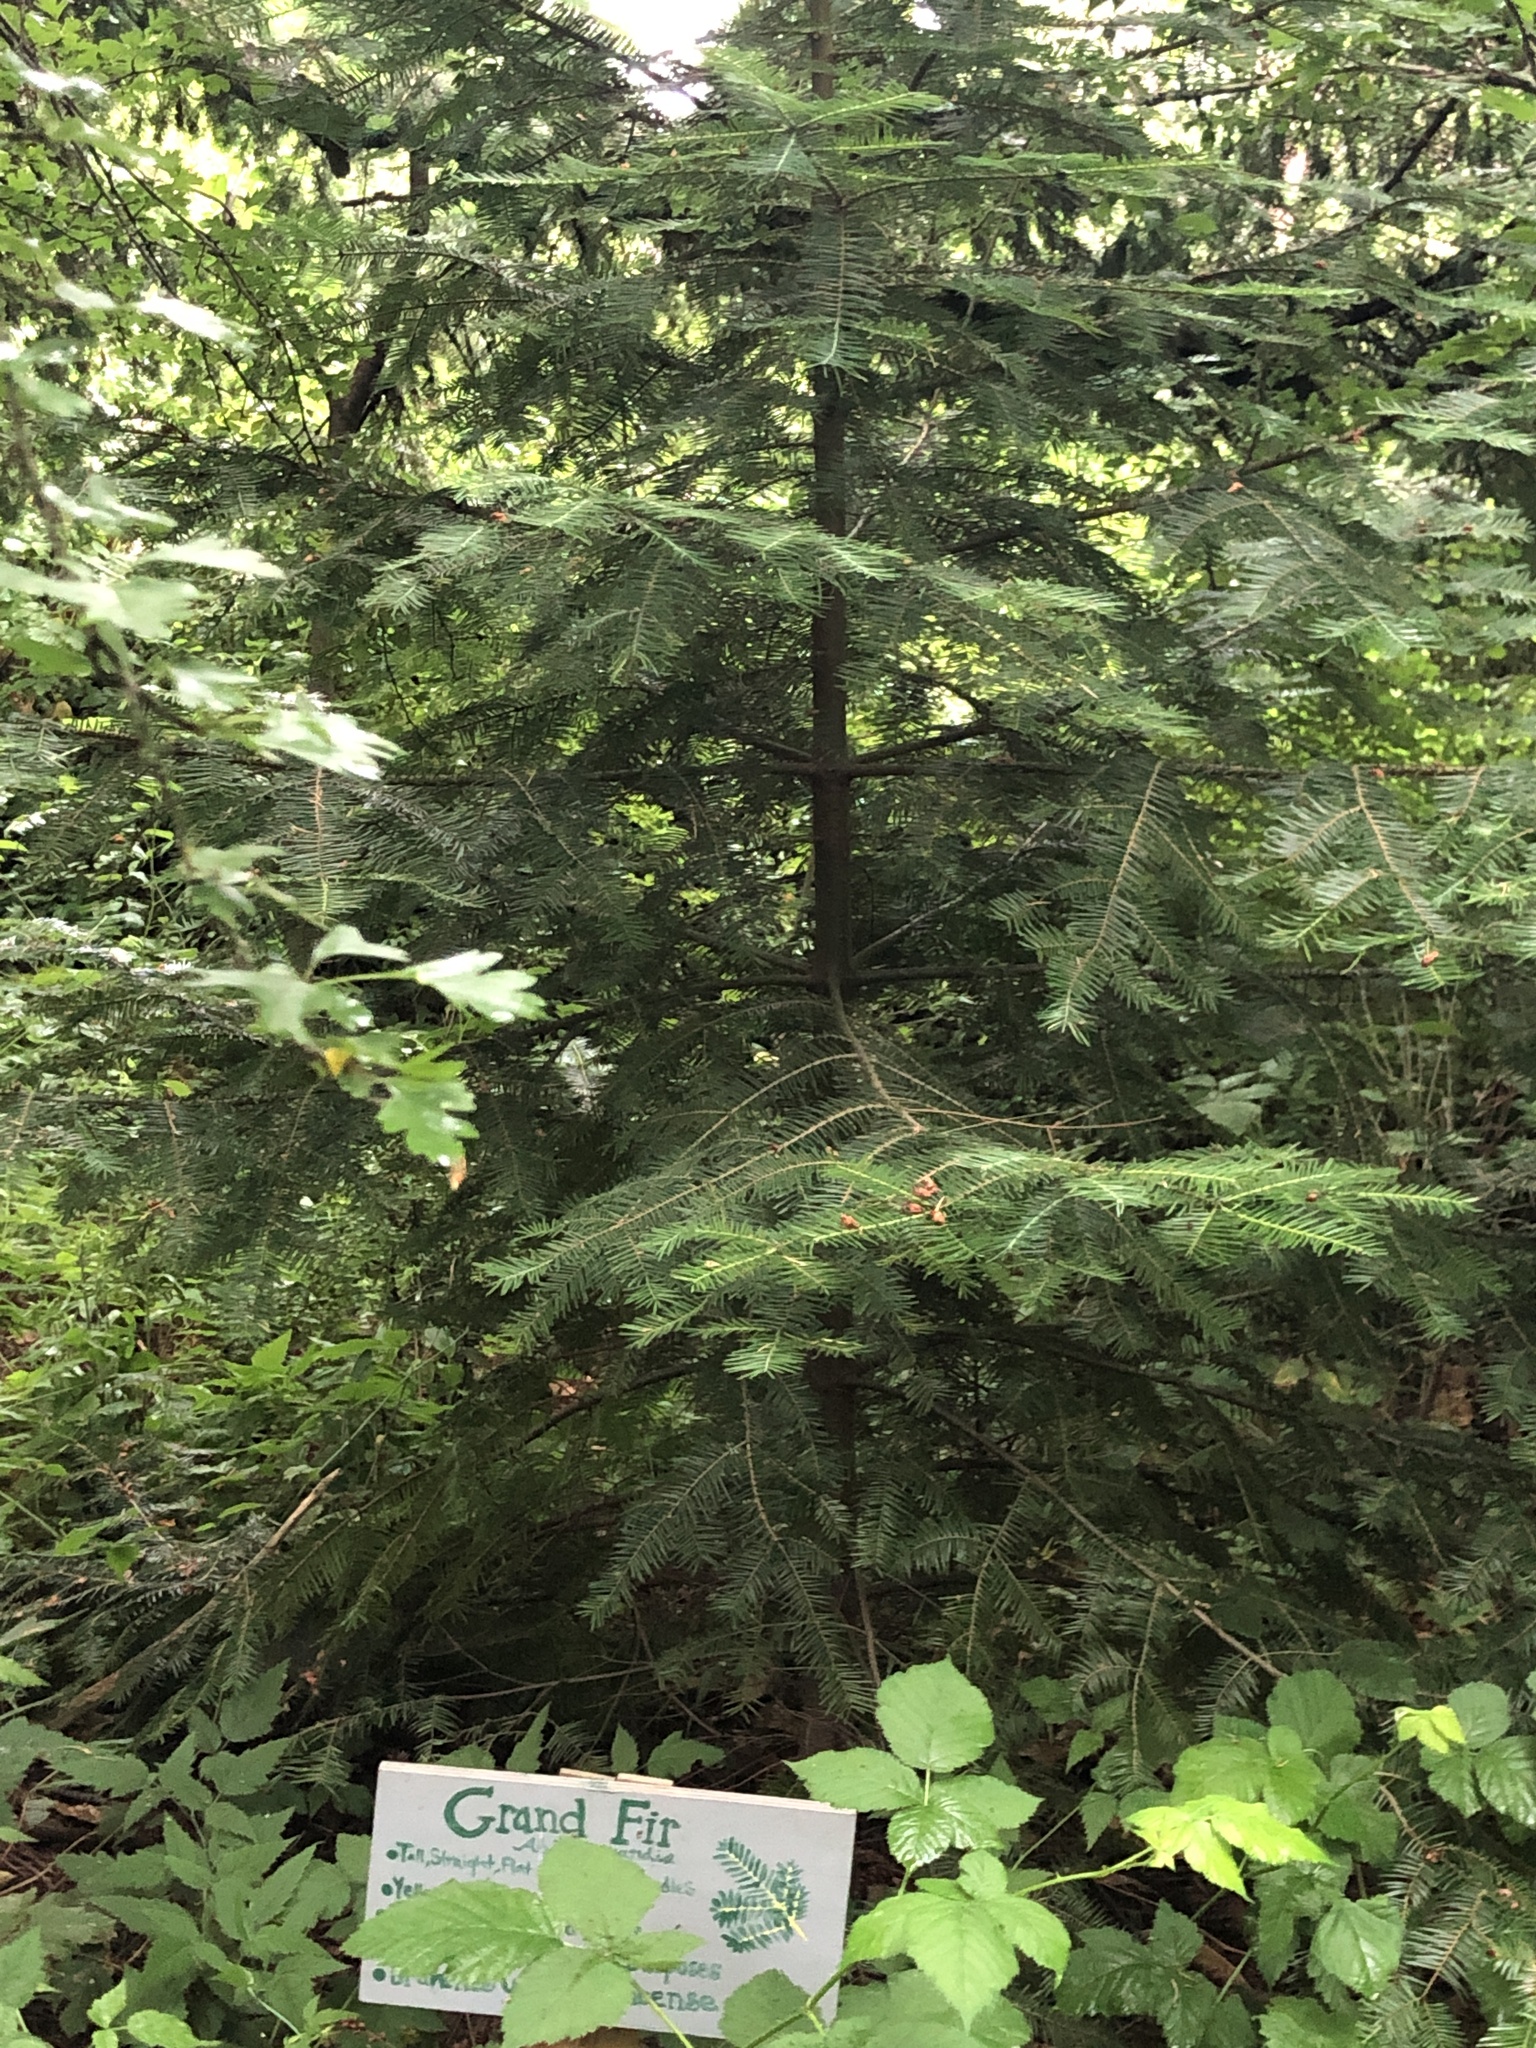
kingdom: Plantae
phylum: Tracheophyta
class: Pinopsida
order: Pinales
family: Pinaceae
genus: Abies
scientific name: Abies grandis
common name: Giant fir
